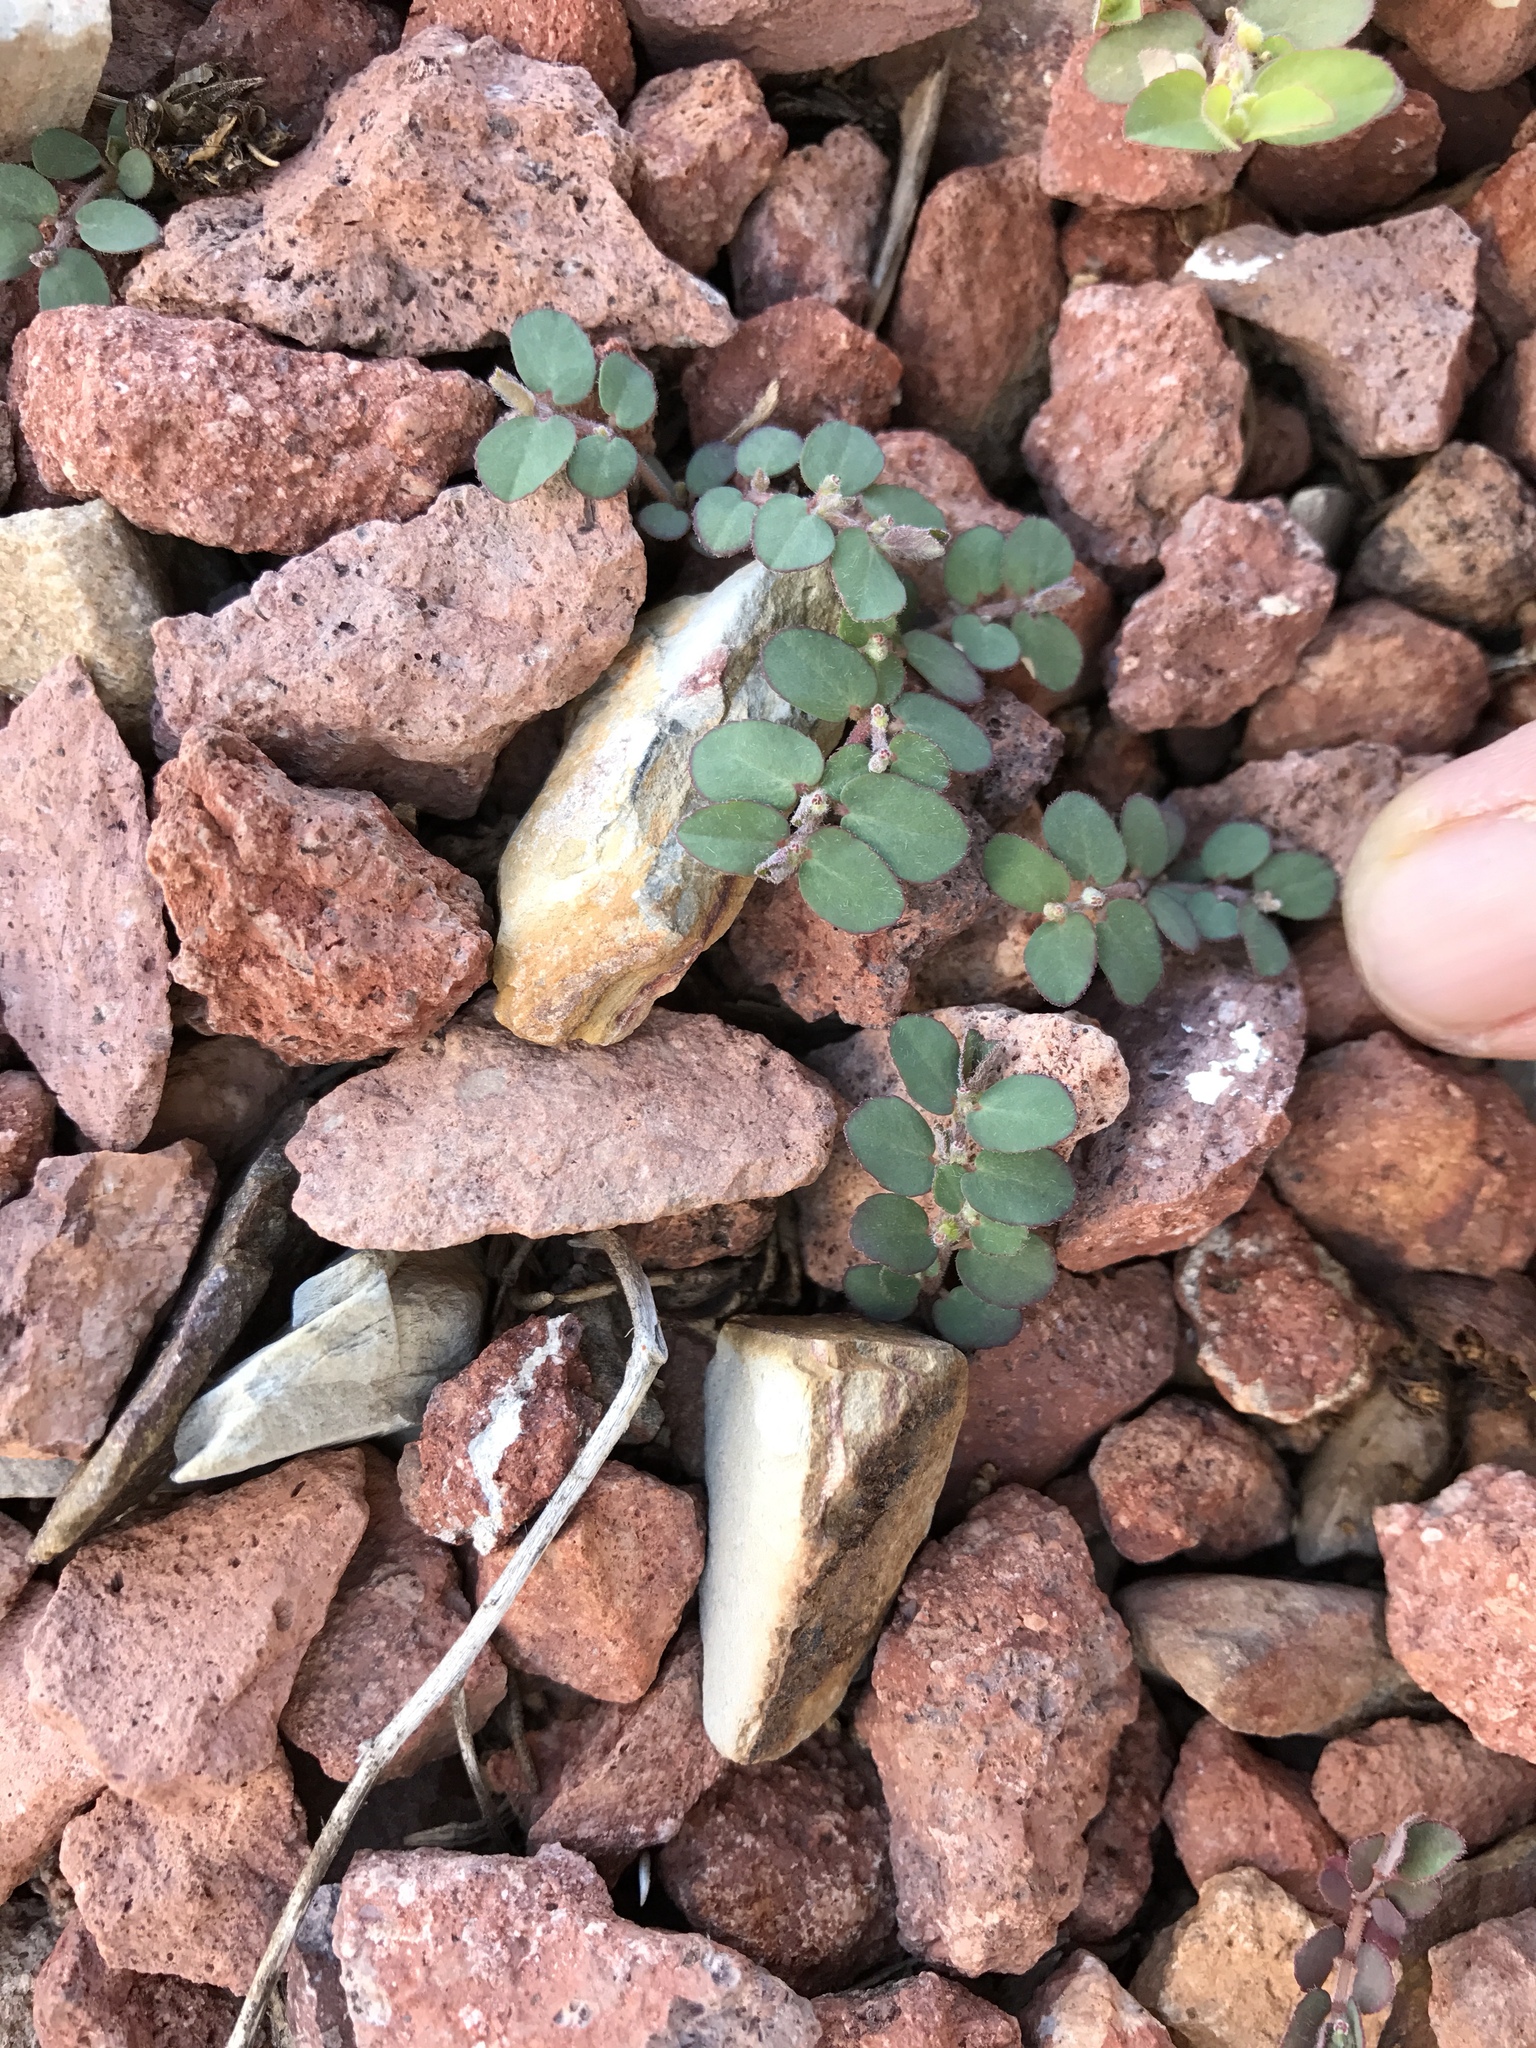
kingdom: Plantae
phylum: Tracheophyta
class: Magnoliopsida
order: Malpighiales
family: Euphorbiaceae
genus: Euphorbia
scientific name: Euphorbia prostrata
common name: Prostrate sandmat
